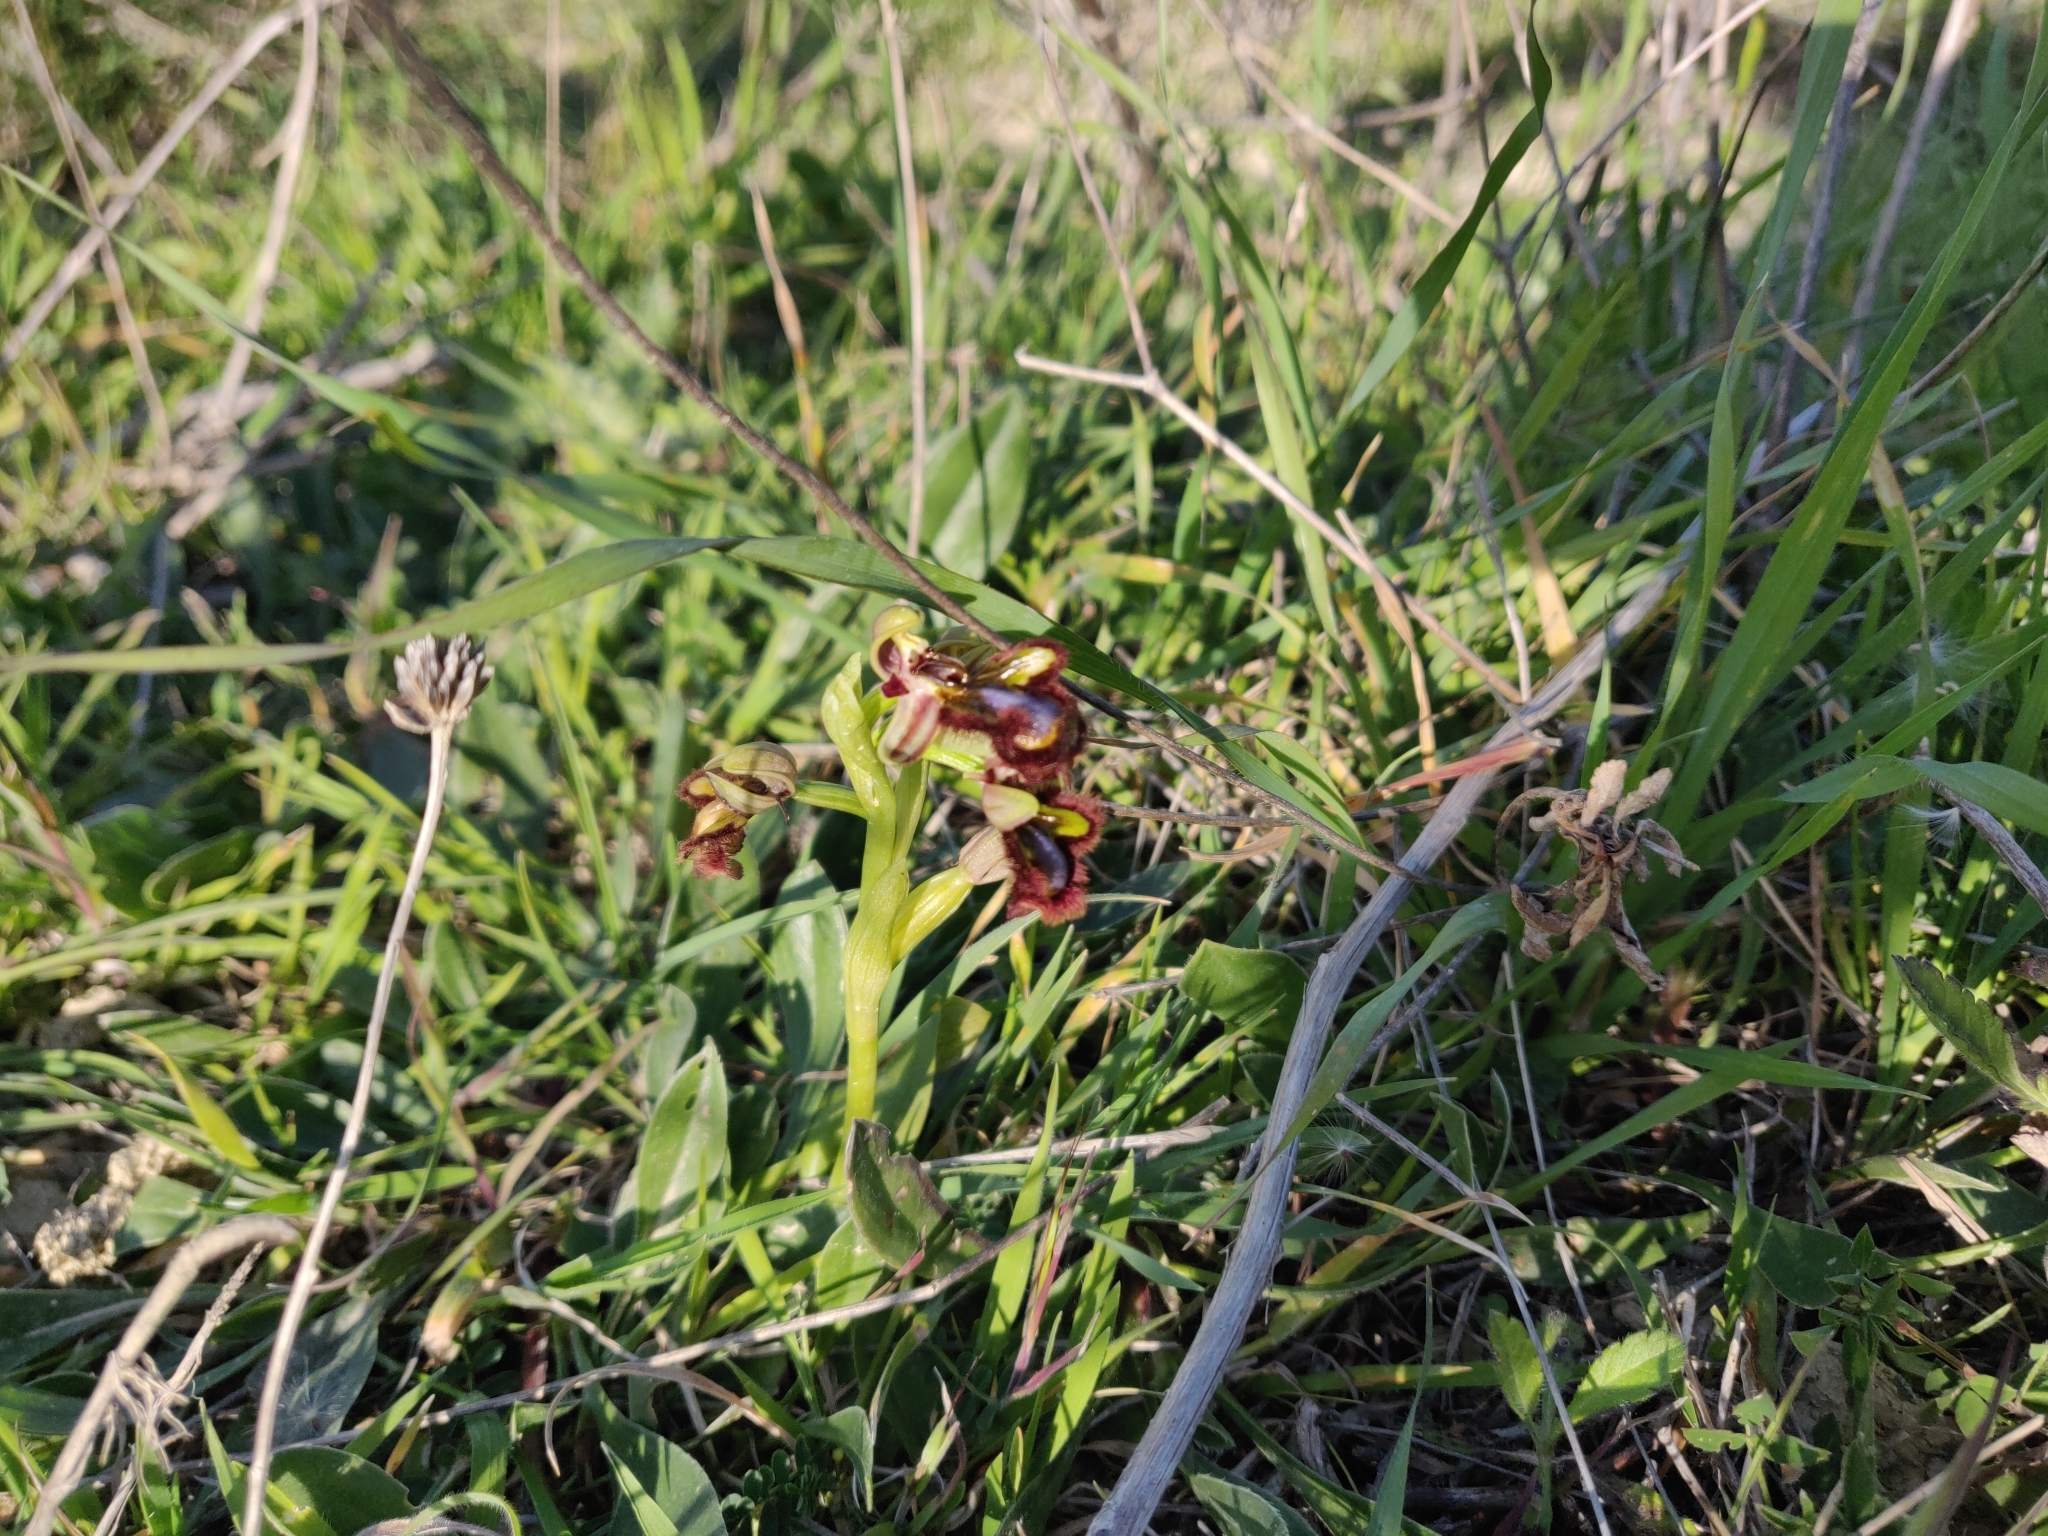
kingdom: Plantae
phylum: Tracheophyta
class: Liliopsida
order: Asparagales
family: Orchidaceae
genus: Ophrys
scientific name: Ophrys speculum
